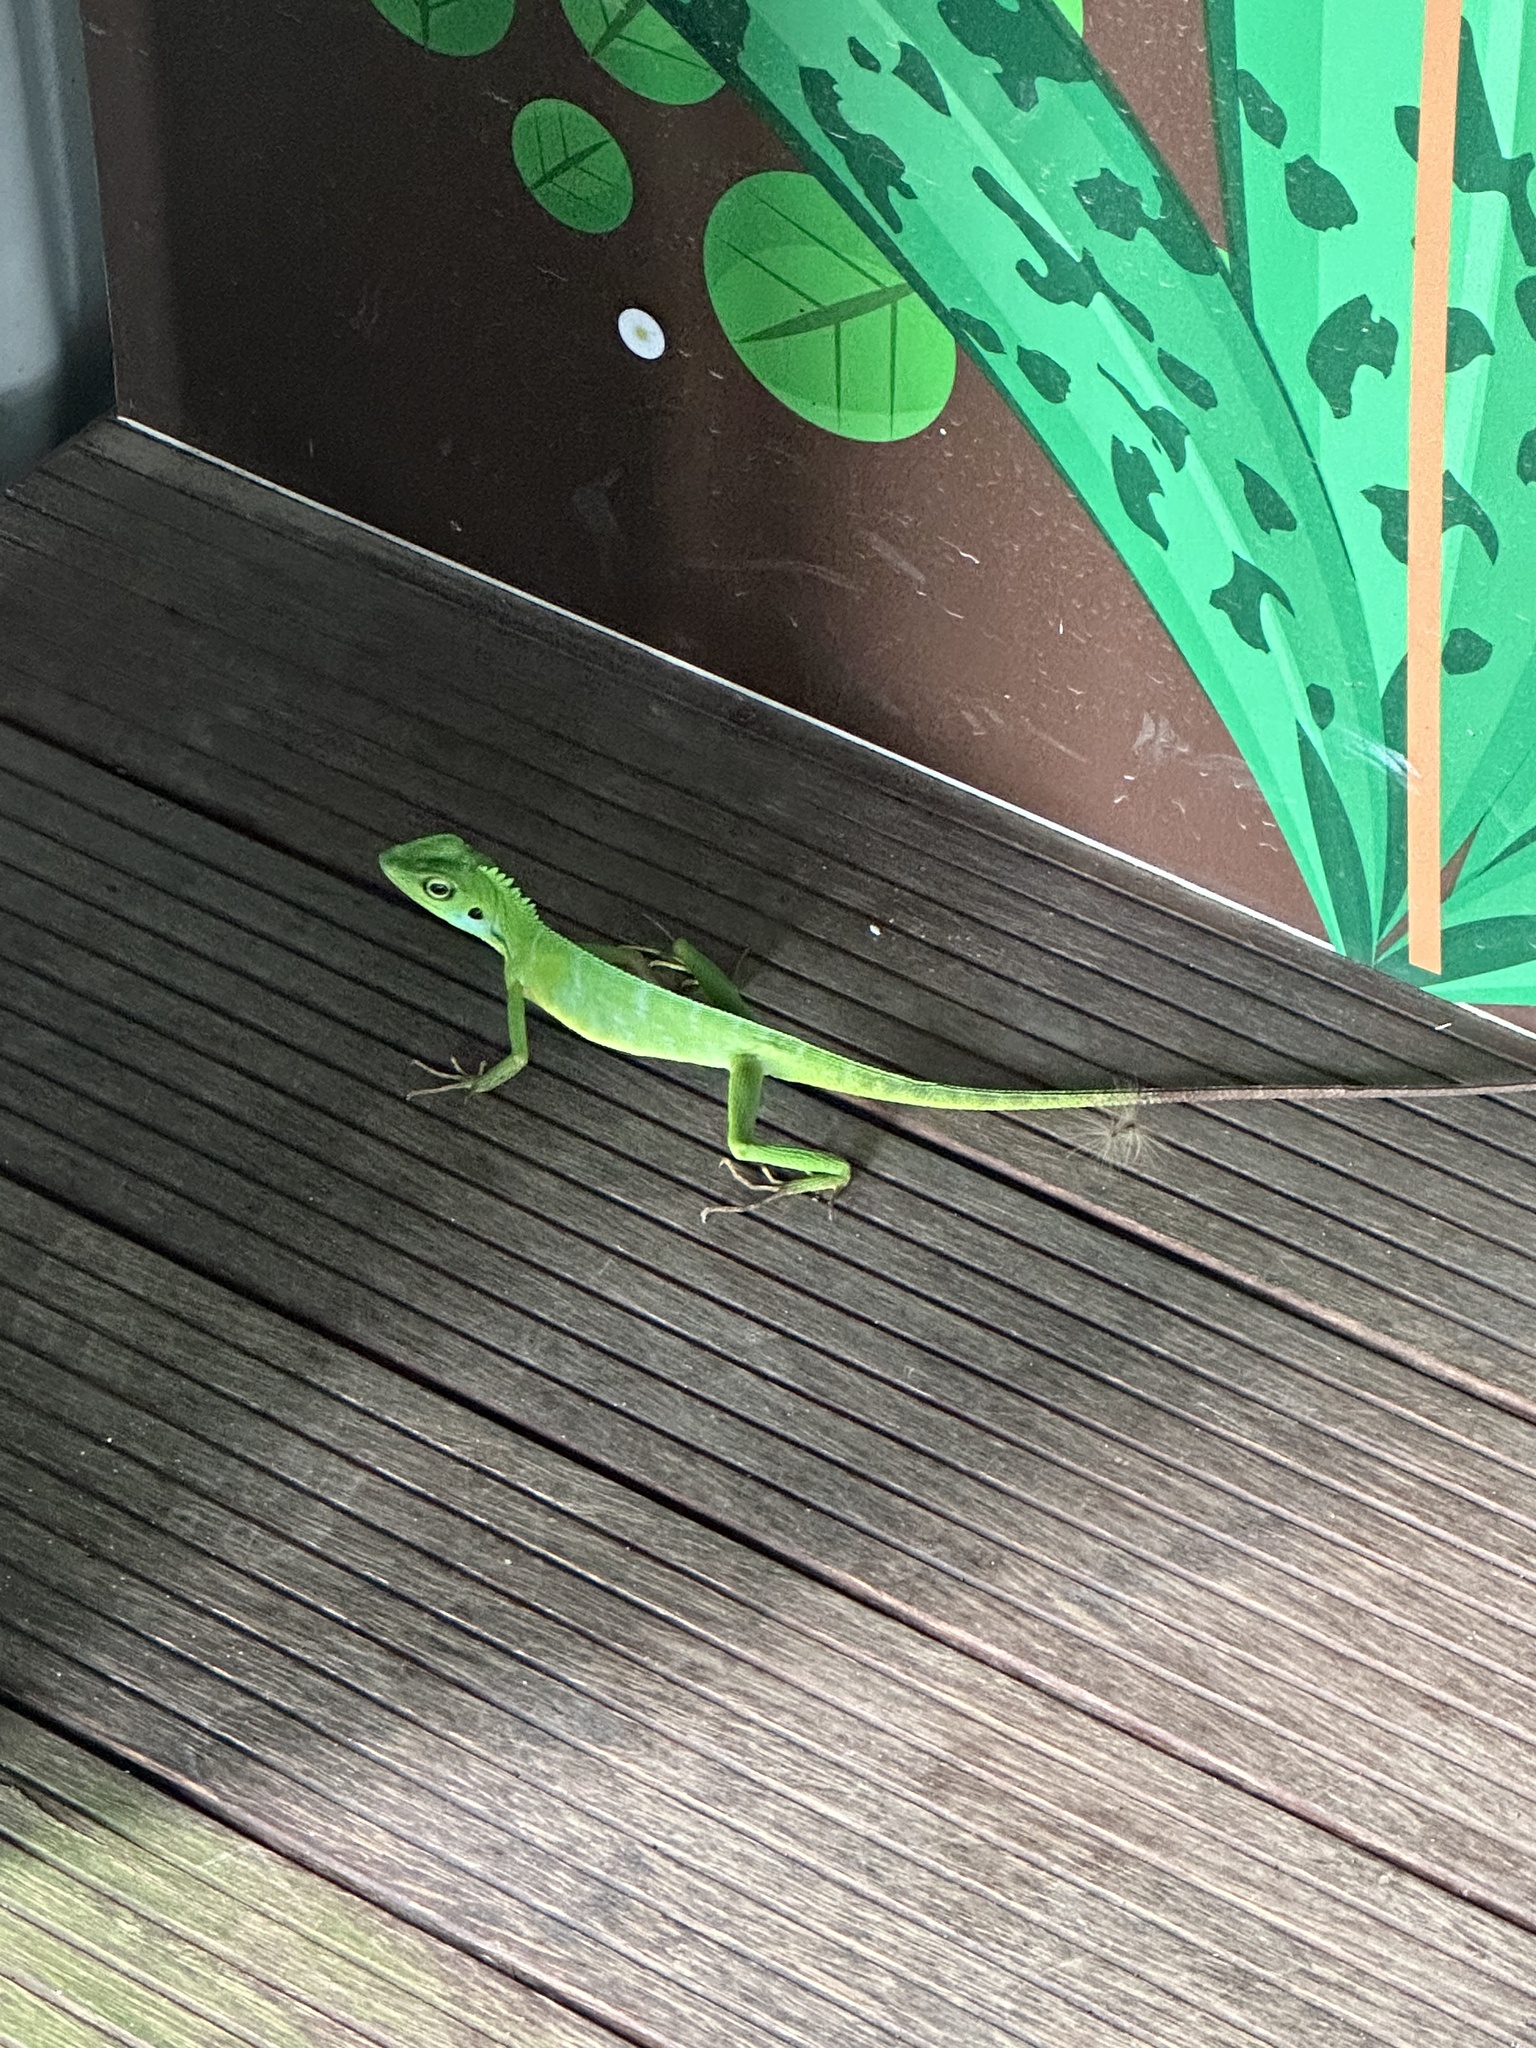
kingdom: Animalia
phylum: Chordata
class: Squamata
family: Agamidae
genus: Bronchocela
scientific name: Bronchocela cristatella
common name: Green crested lizard
